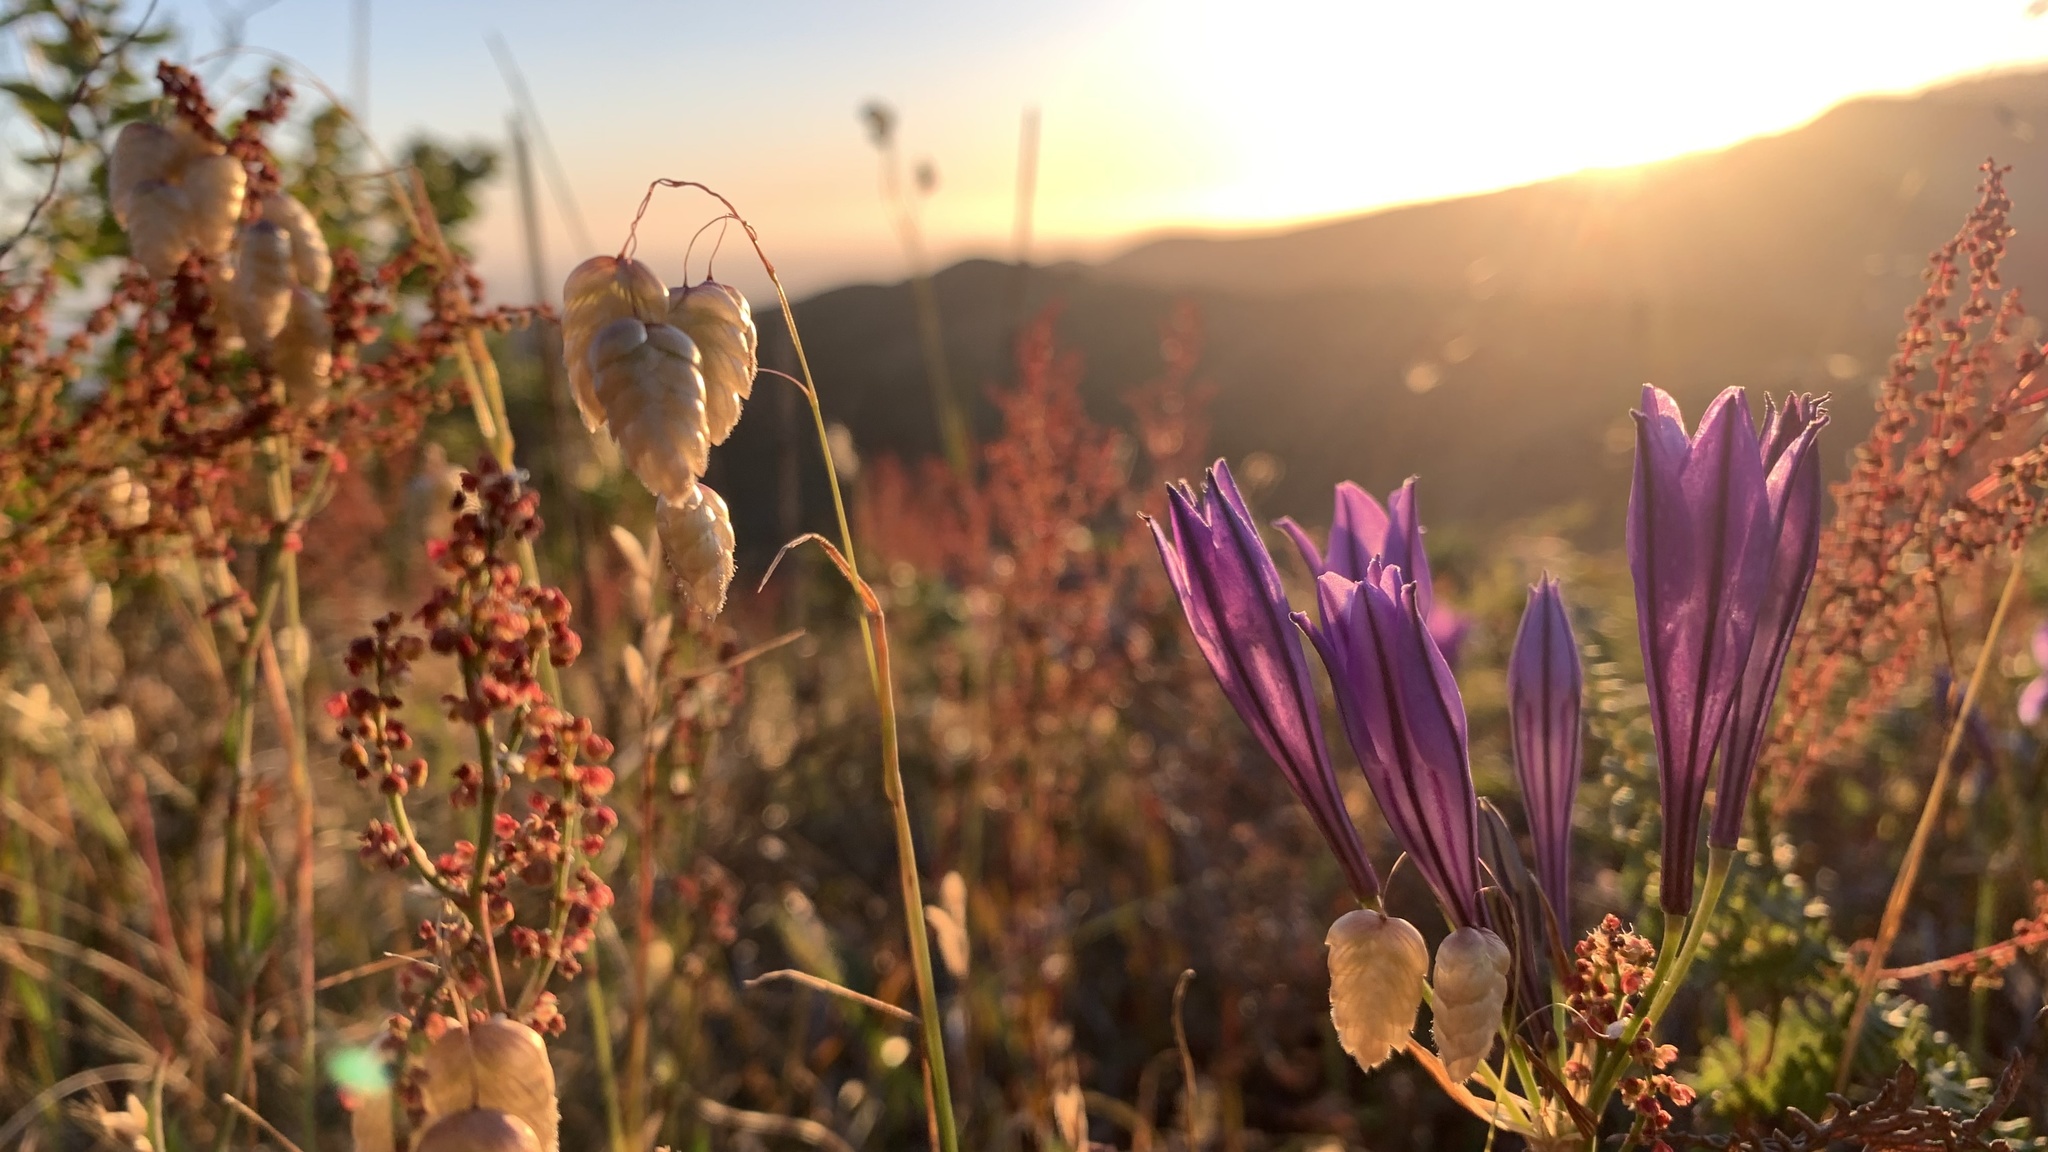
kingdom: Plantae
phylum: Tracheophyta
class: Liliopsida
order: Asparagales
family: Asparagaceae
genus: Triteleia
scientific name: Triteleia laxa
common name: Triplet-lily
